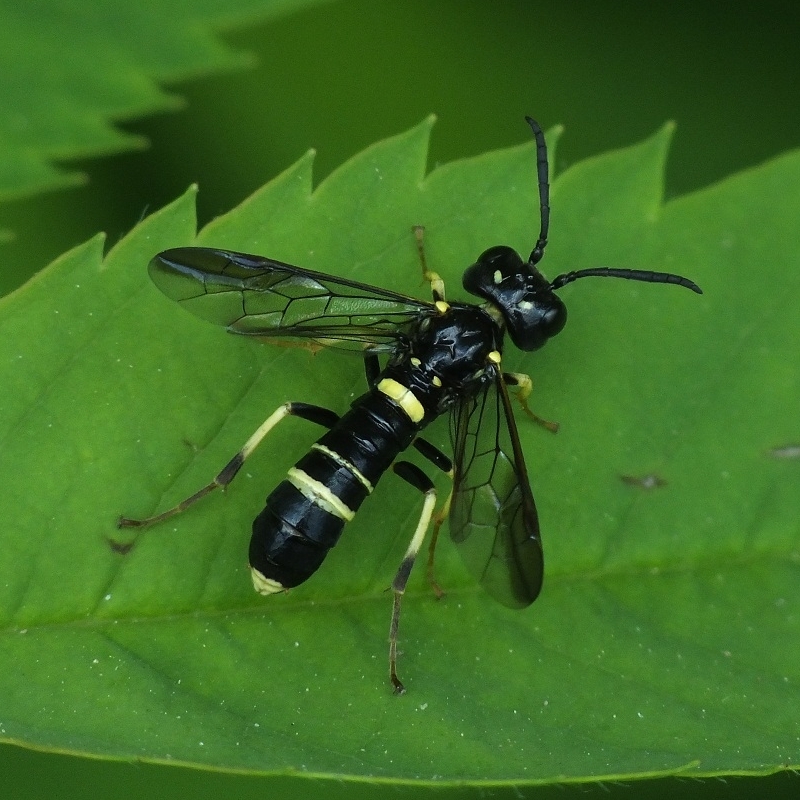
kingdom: Animalia
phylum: Arthropoda
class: Insecta
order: Hymenoptera
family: Tenthredinidae
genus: Allantus
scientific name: Allantus viennensis
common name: Sawfly
